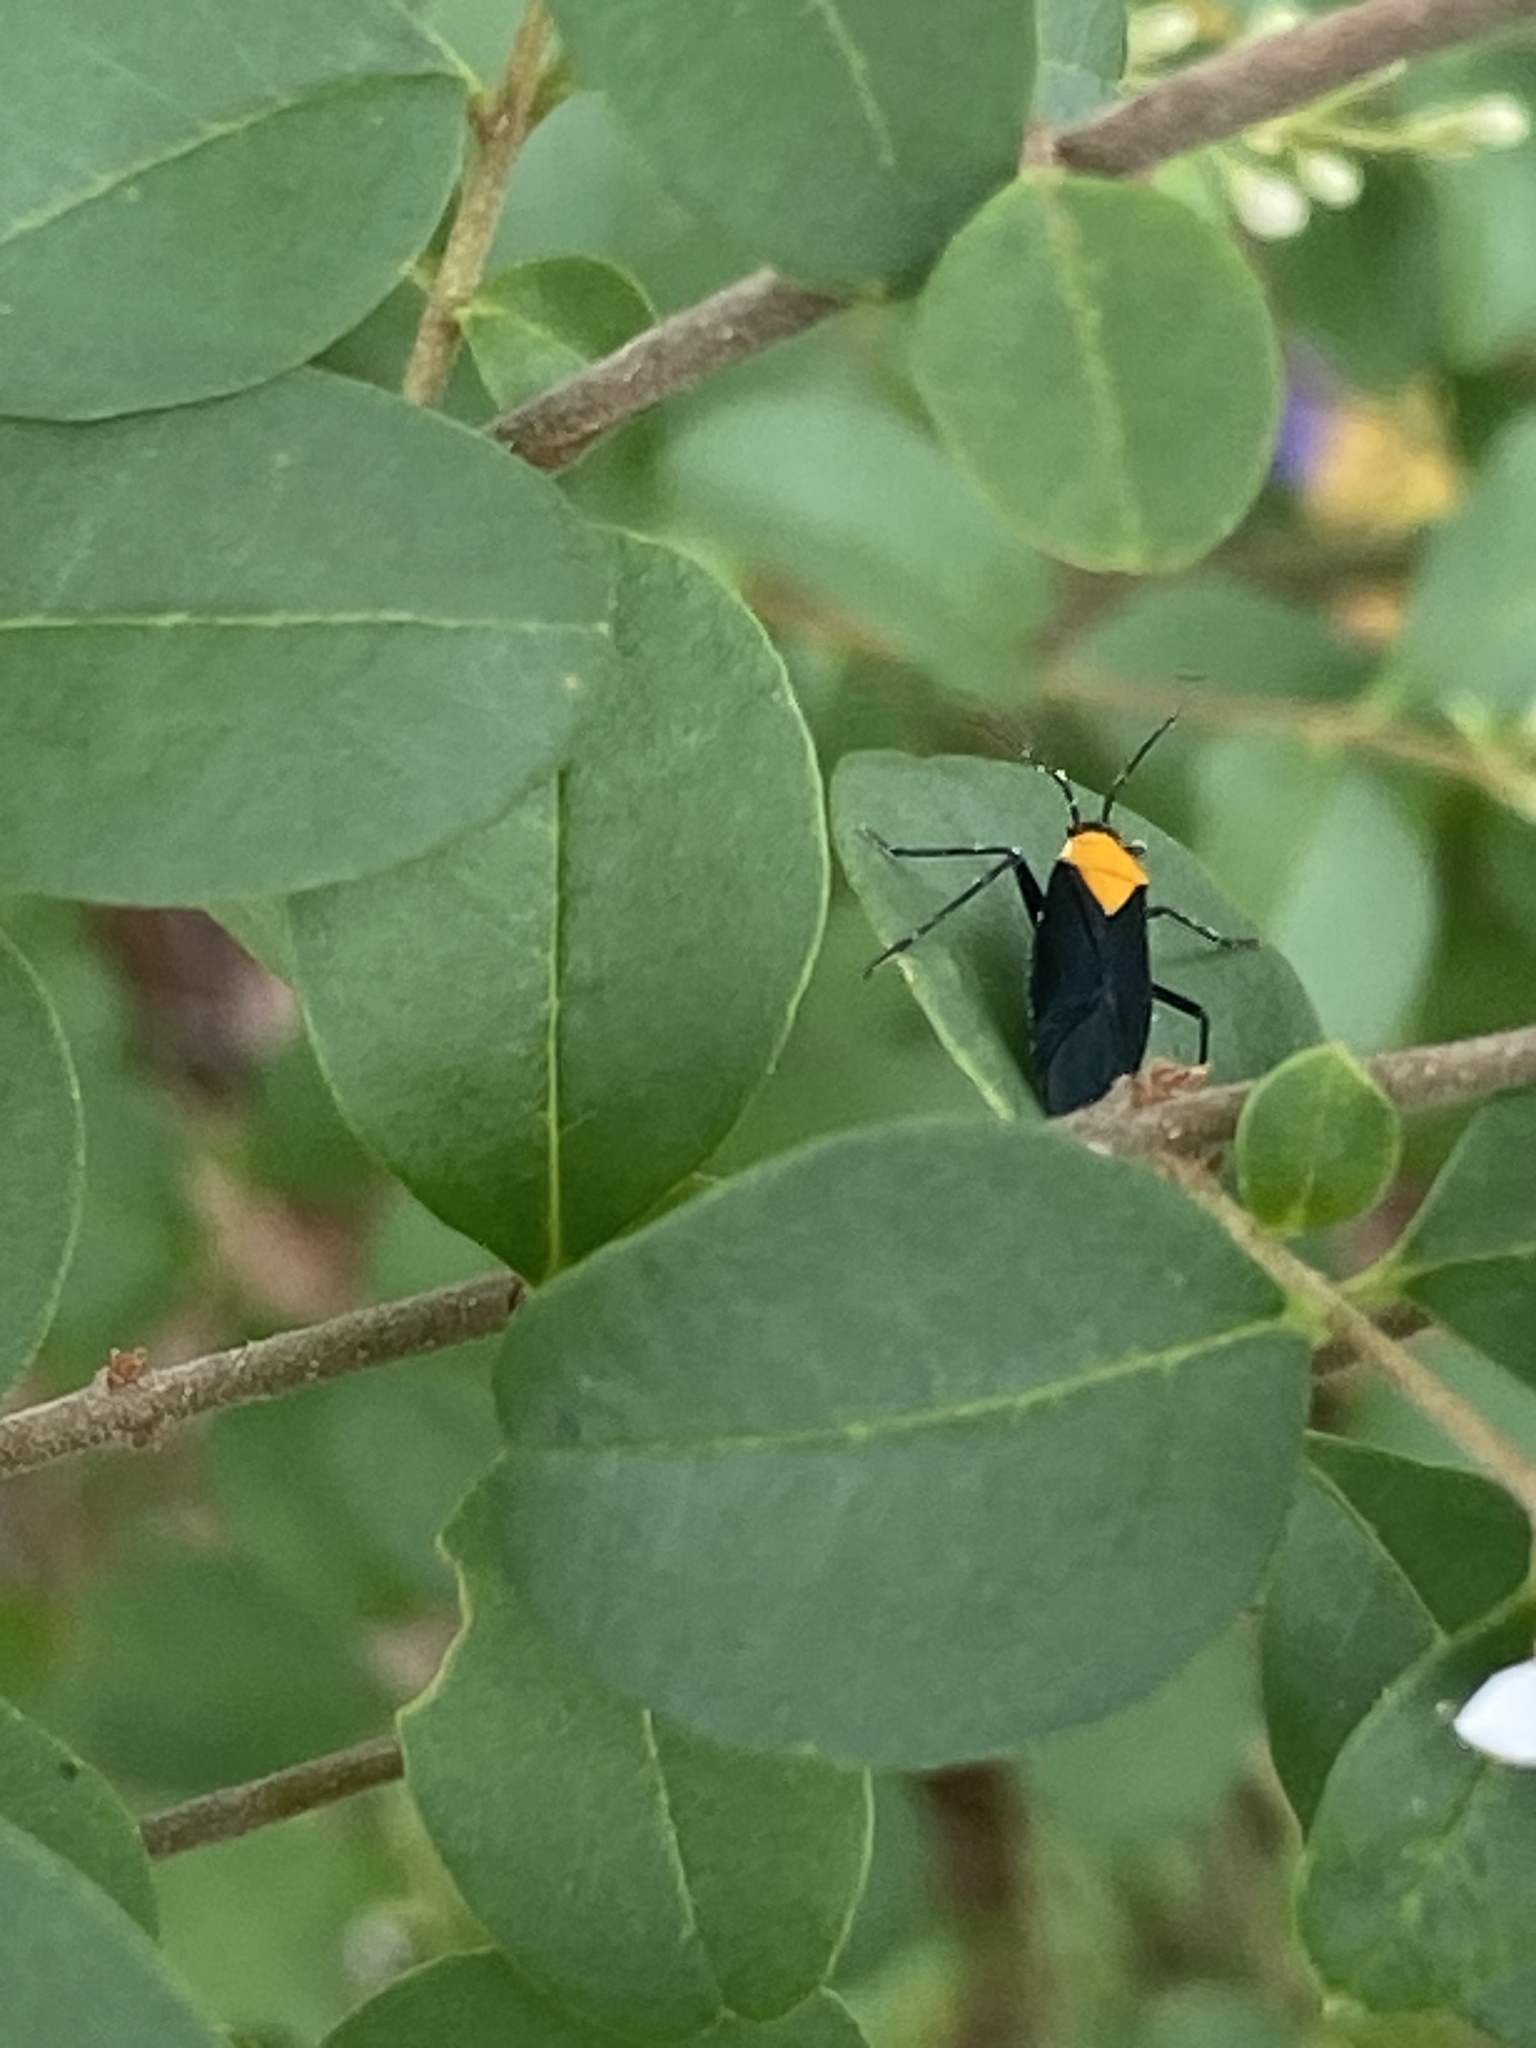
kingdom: Animalia
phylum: Arthropoda
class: Insecta
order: Hemiptera
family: Miridae
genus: Prepops
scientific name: Prepops insitivus
